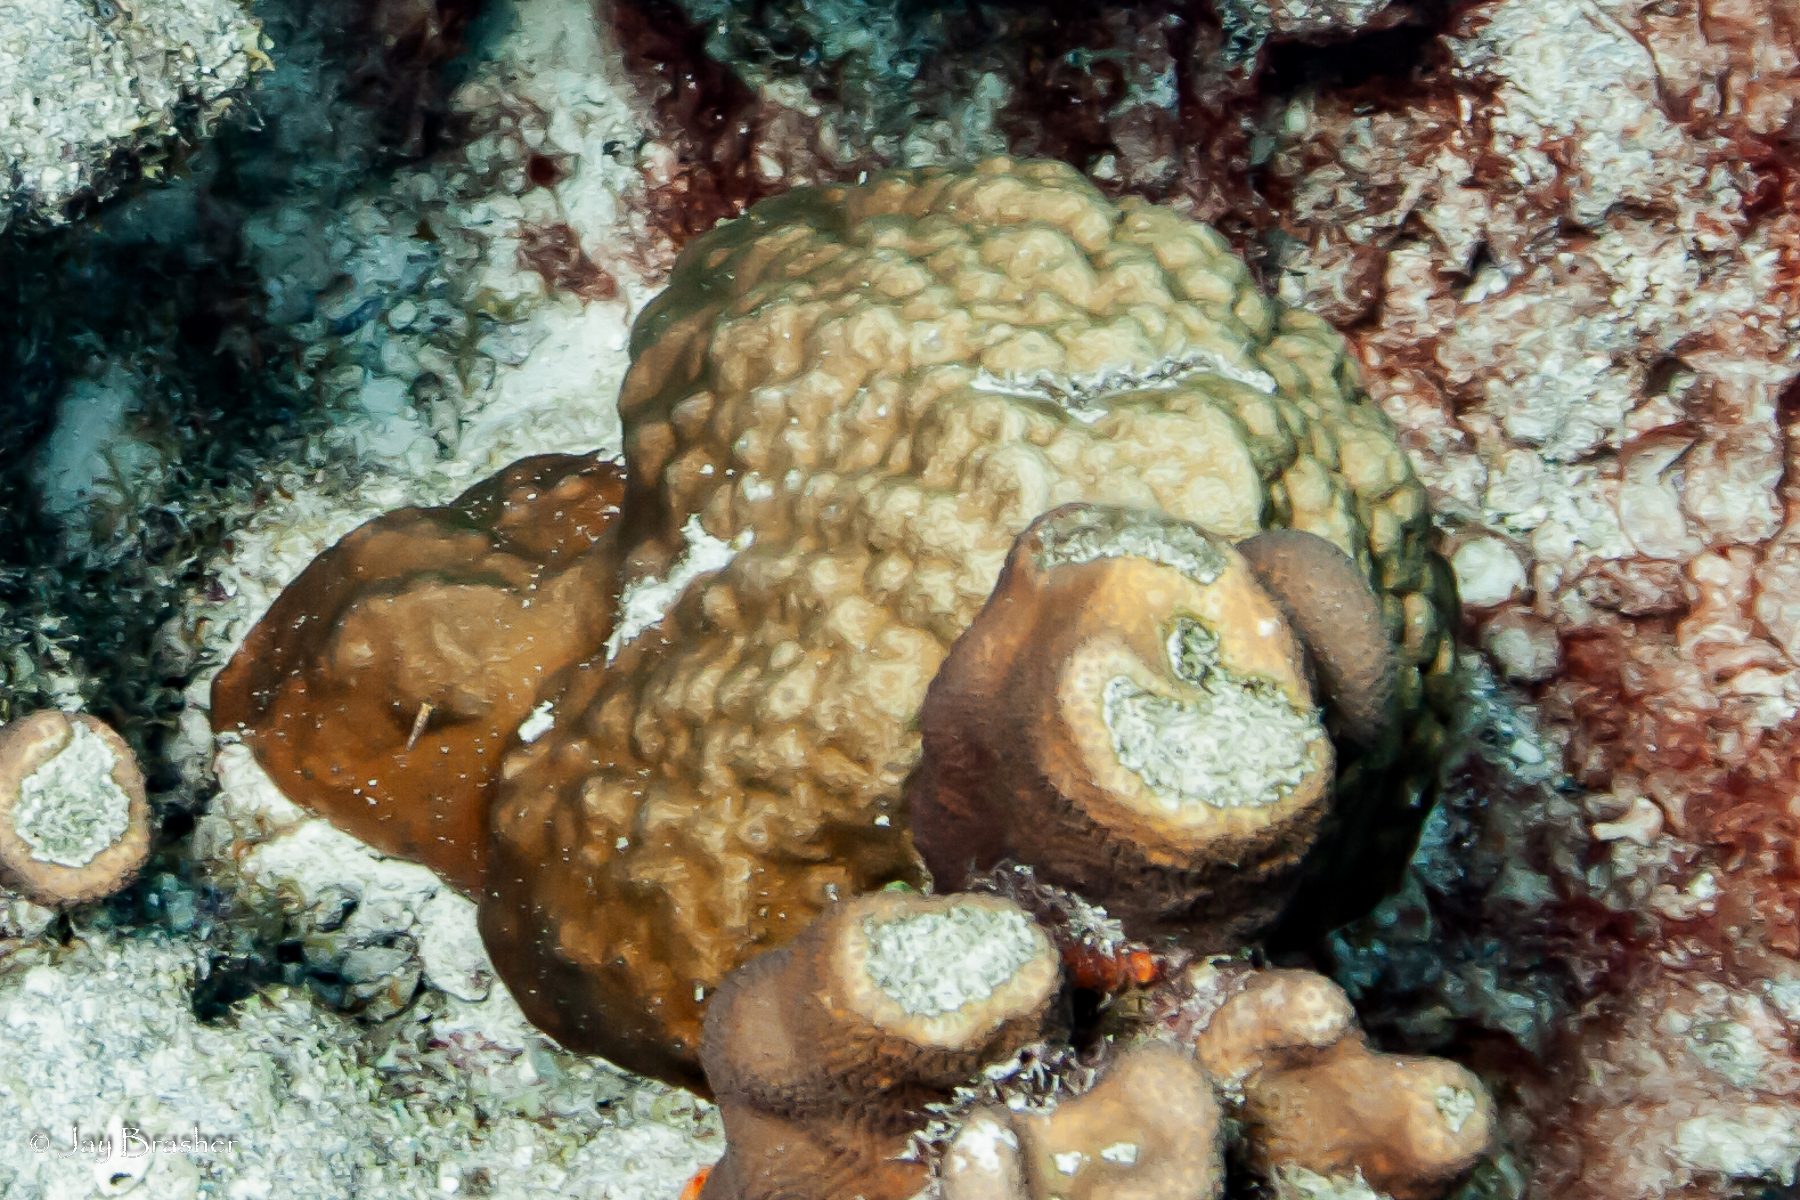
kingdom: Animalia
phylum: Cnidaria
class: Anthozoa
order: Scleractinia
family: Poritidae
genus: Porites
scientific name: Porites astreoides
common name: Mustard hill coral
